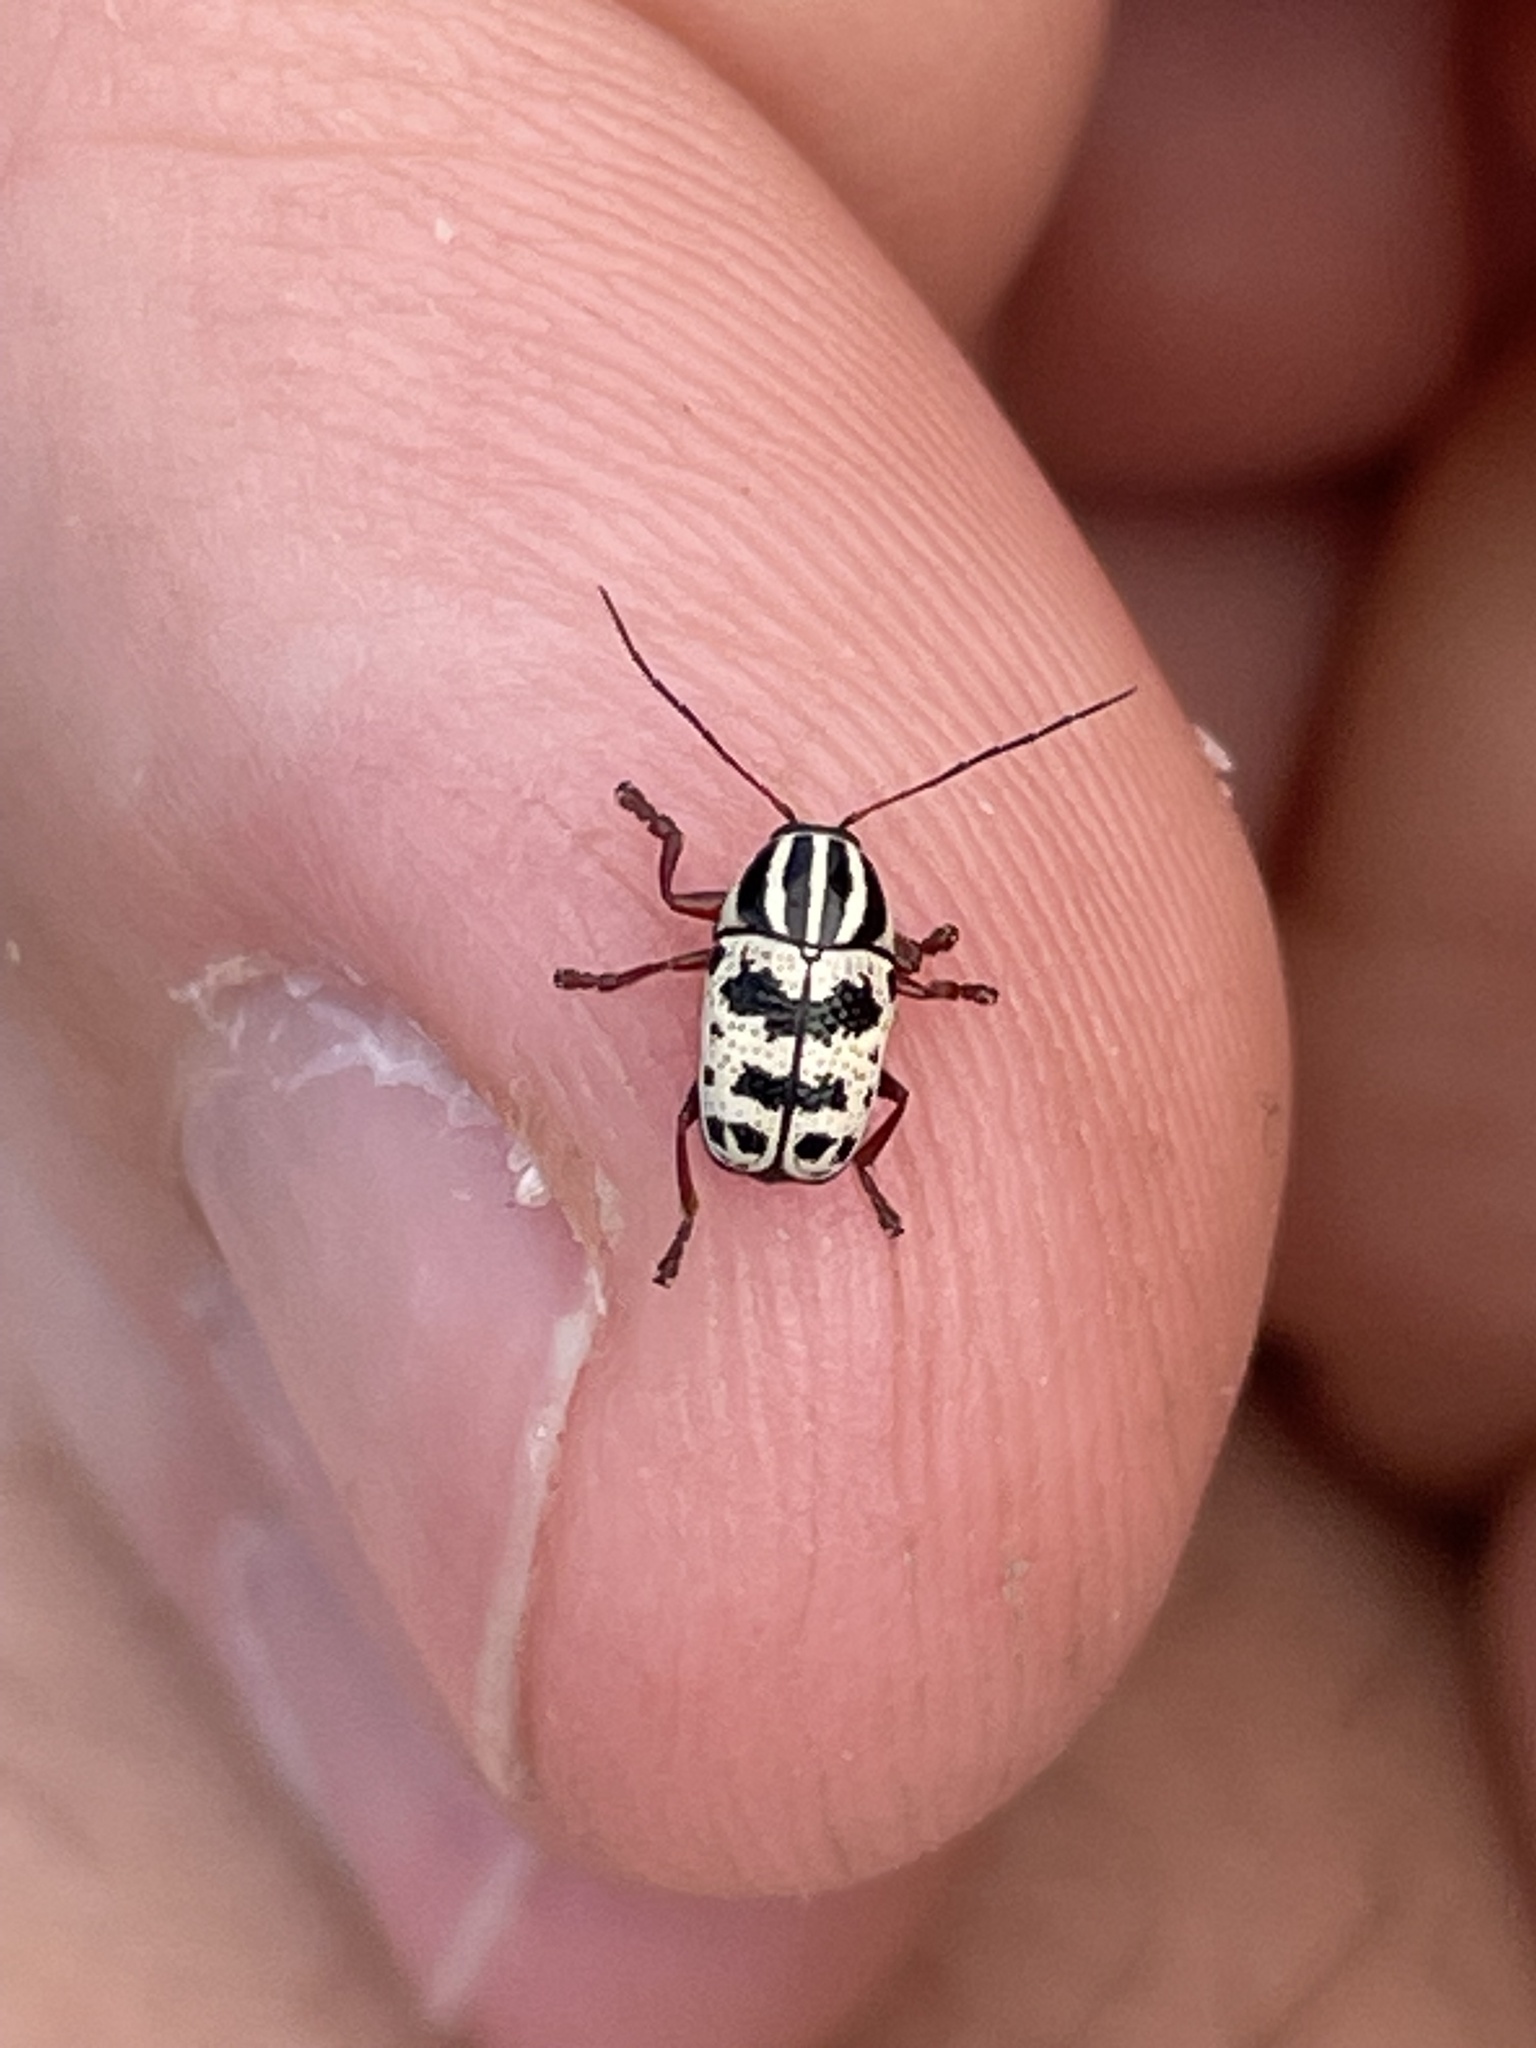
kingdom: Animalia
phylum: Arthropoda
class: Insecta
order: Coleoptera
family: Chrysomelidae
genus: Cryptocephalus
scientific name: Cryptocephalus leucomelas
